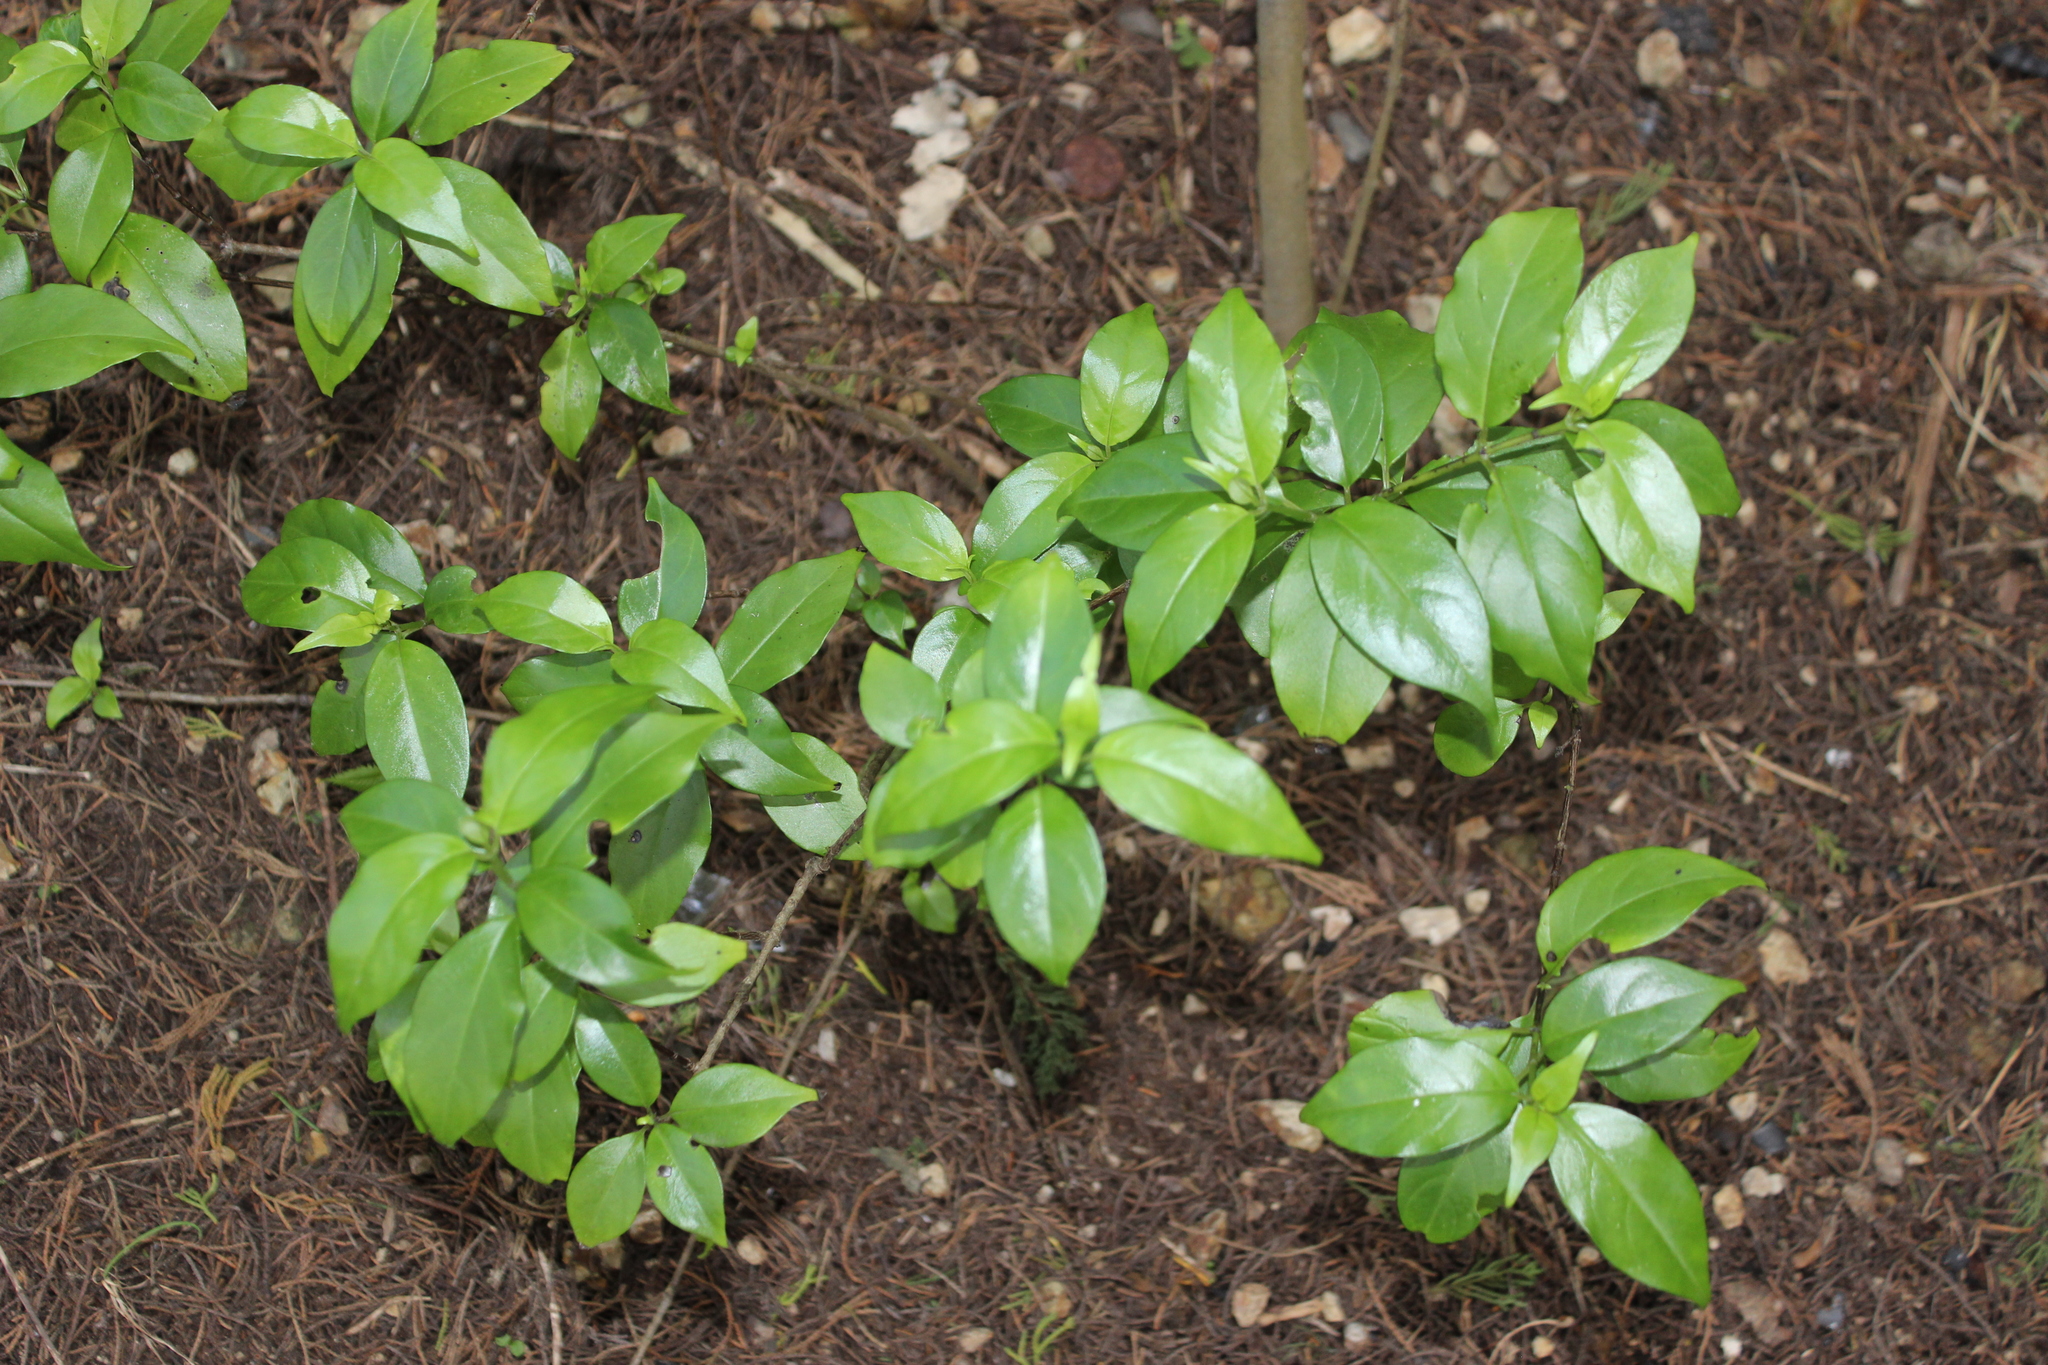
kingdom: Plantae
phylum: Tracheophyta
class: Magnoliopsida
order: Gentianales
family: Loganiaceae
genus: Geniostoma
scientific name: Geniostoma ligustrifolium
